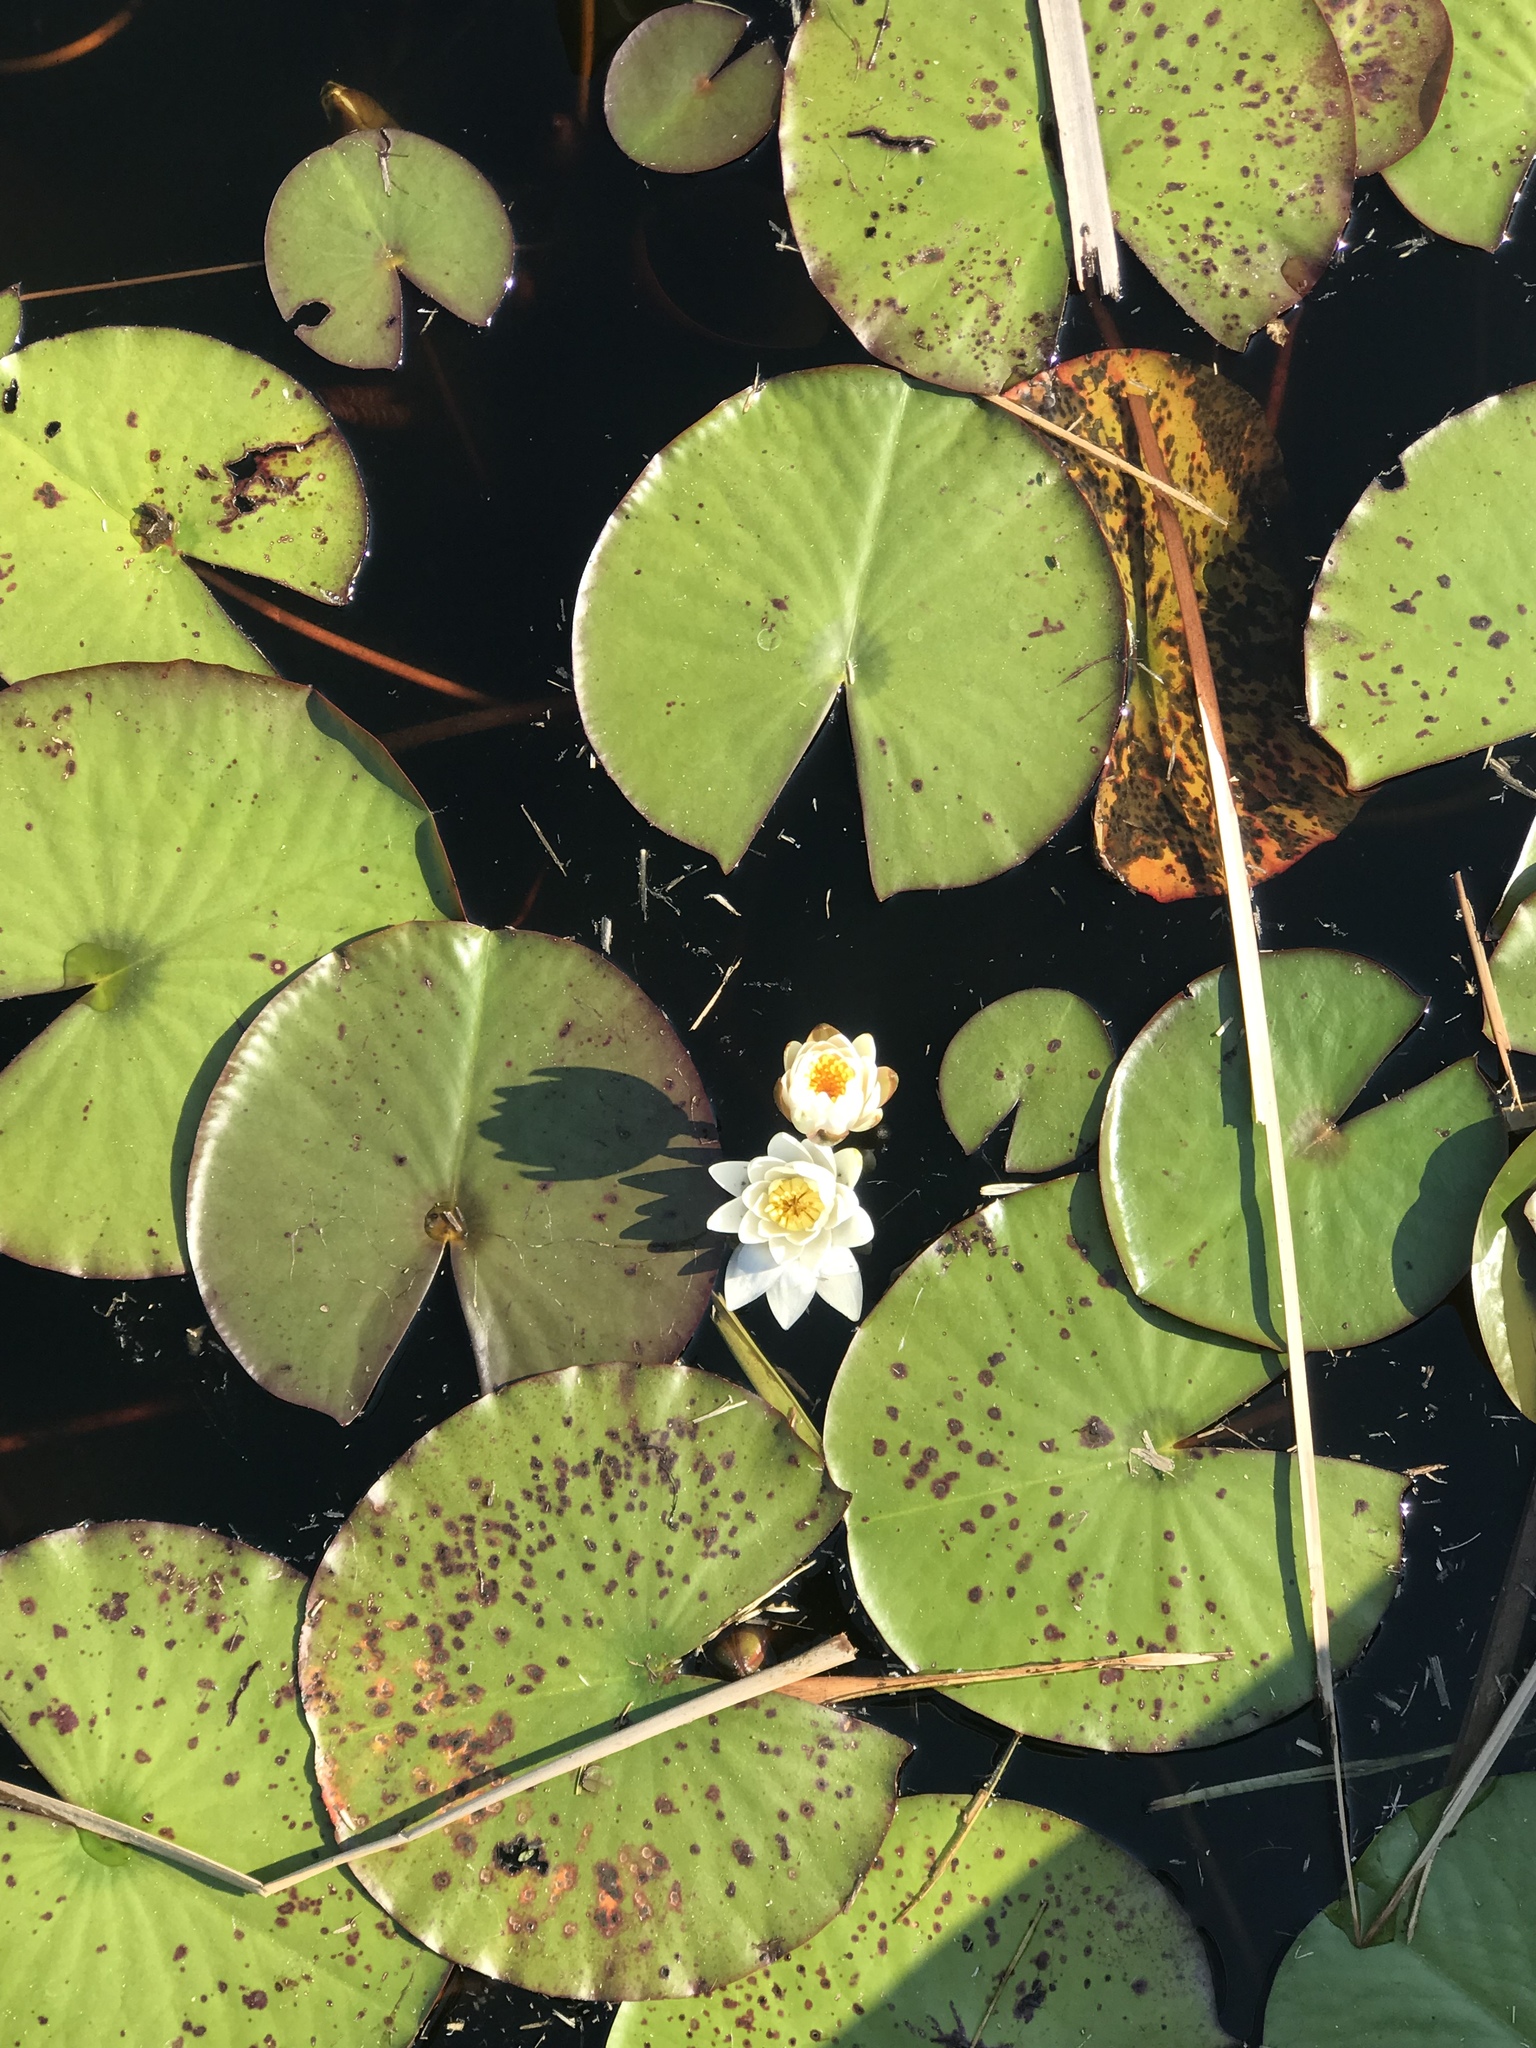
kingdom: Plantae
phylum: Tracheophyta
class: Magnoliopsida
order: Nymphaeales
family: Nymphaeaceae
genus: Nymphaea
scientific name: Nymphaea odorata
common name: Fragrant water-lily
